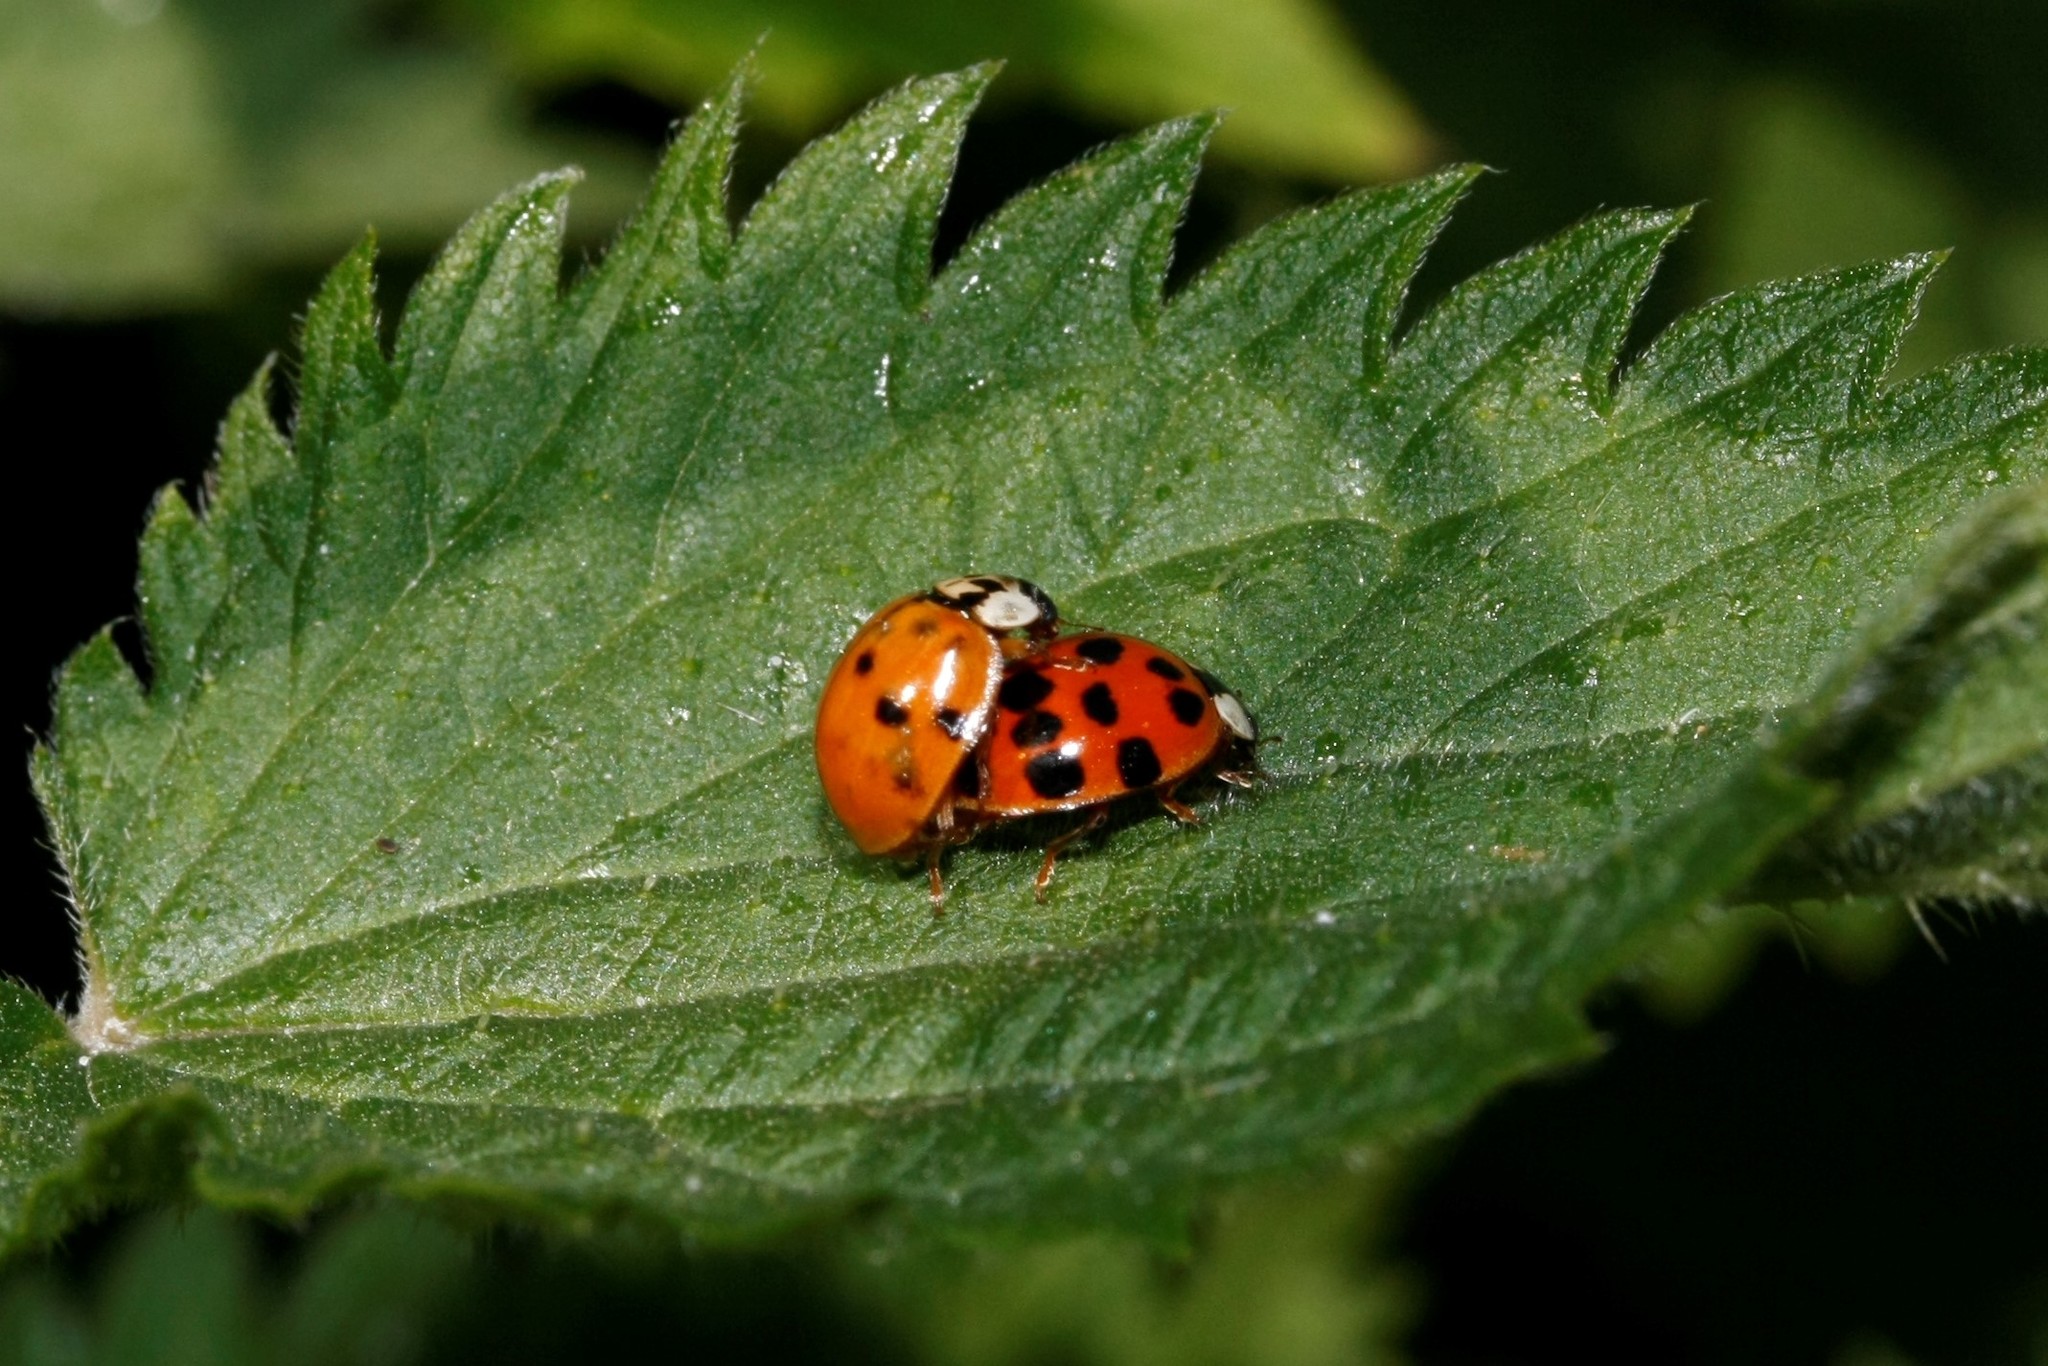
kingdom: Animalia
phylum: Arthropoda
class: Insecta
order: Coleoptera
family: Coccinellidae
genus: Harmonia
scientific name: Harmonia axyridis
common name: Harlequin ladybird
